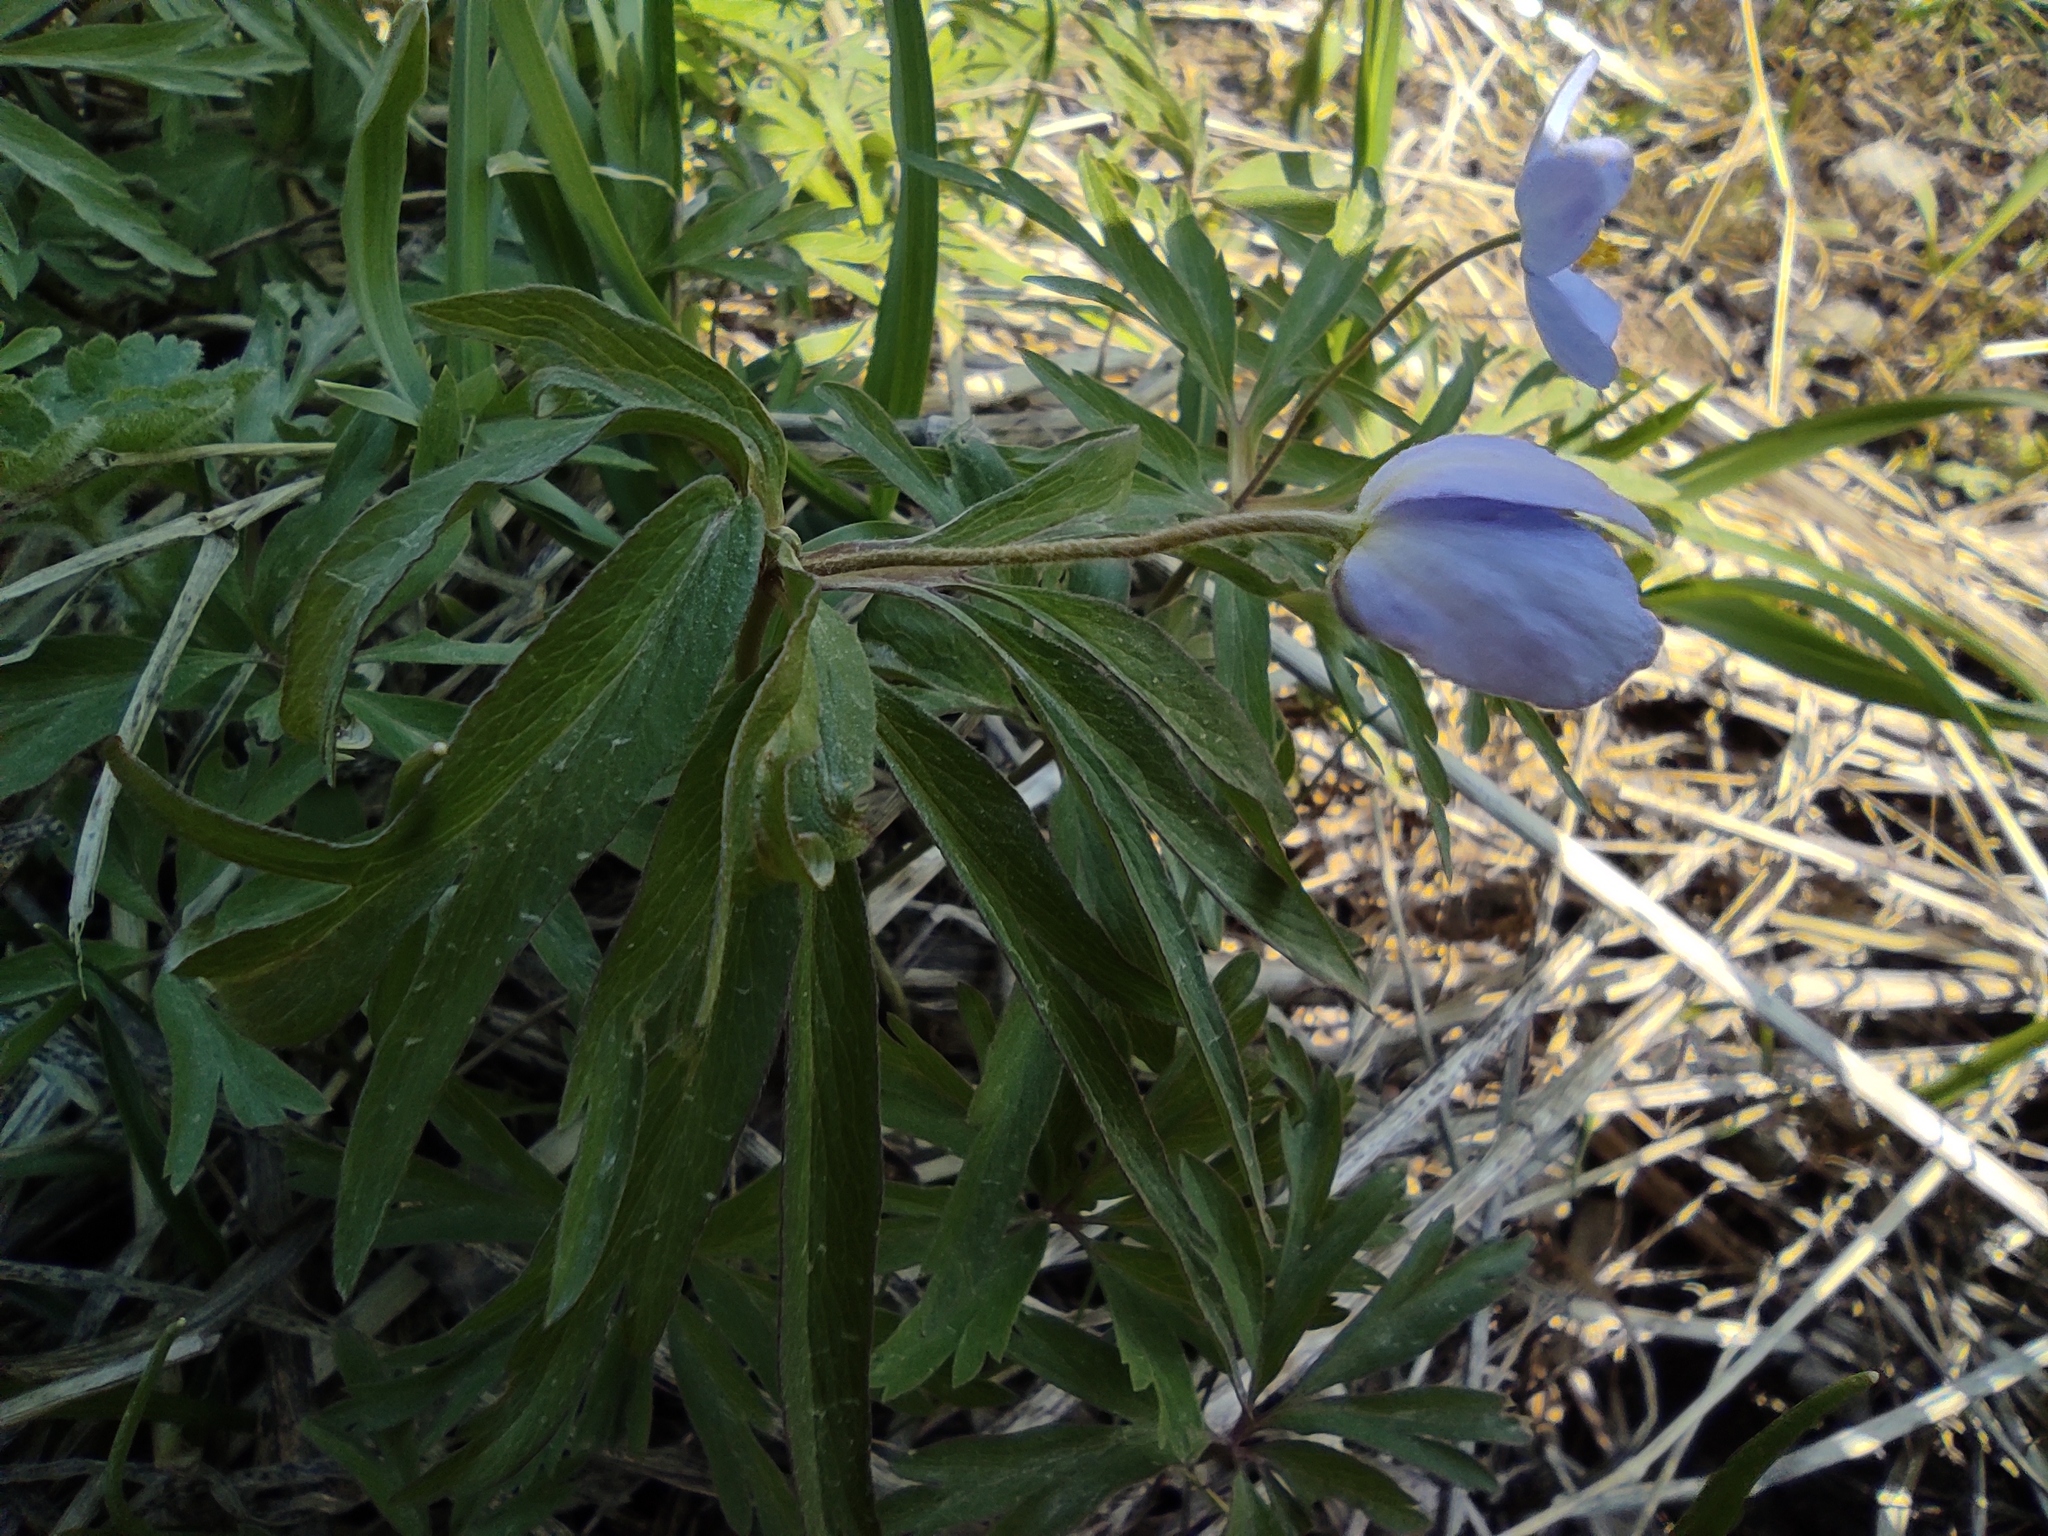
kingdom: Plantae
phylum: Tracheophyta
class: Magnoliopsida
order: Ranunculales
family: Ranunculaceae
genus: Anemone
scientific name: Anemone caerulea
